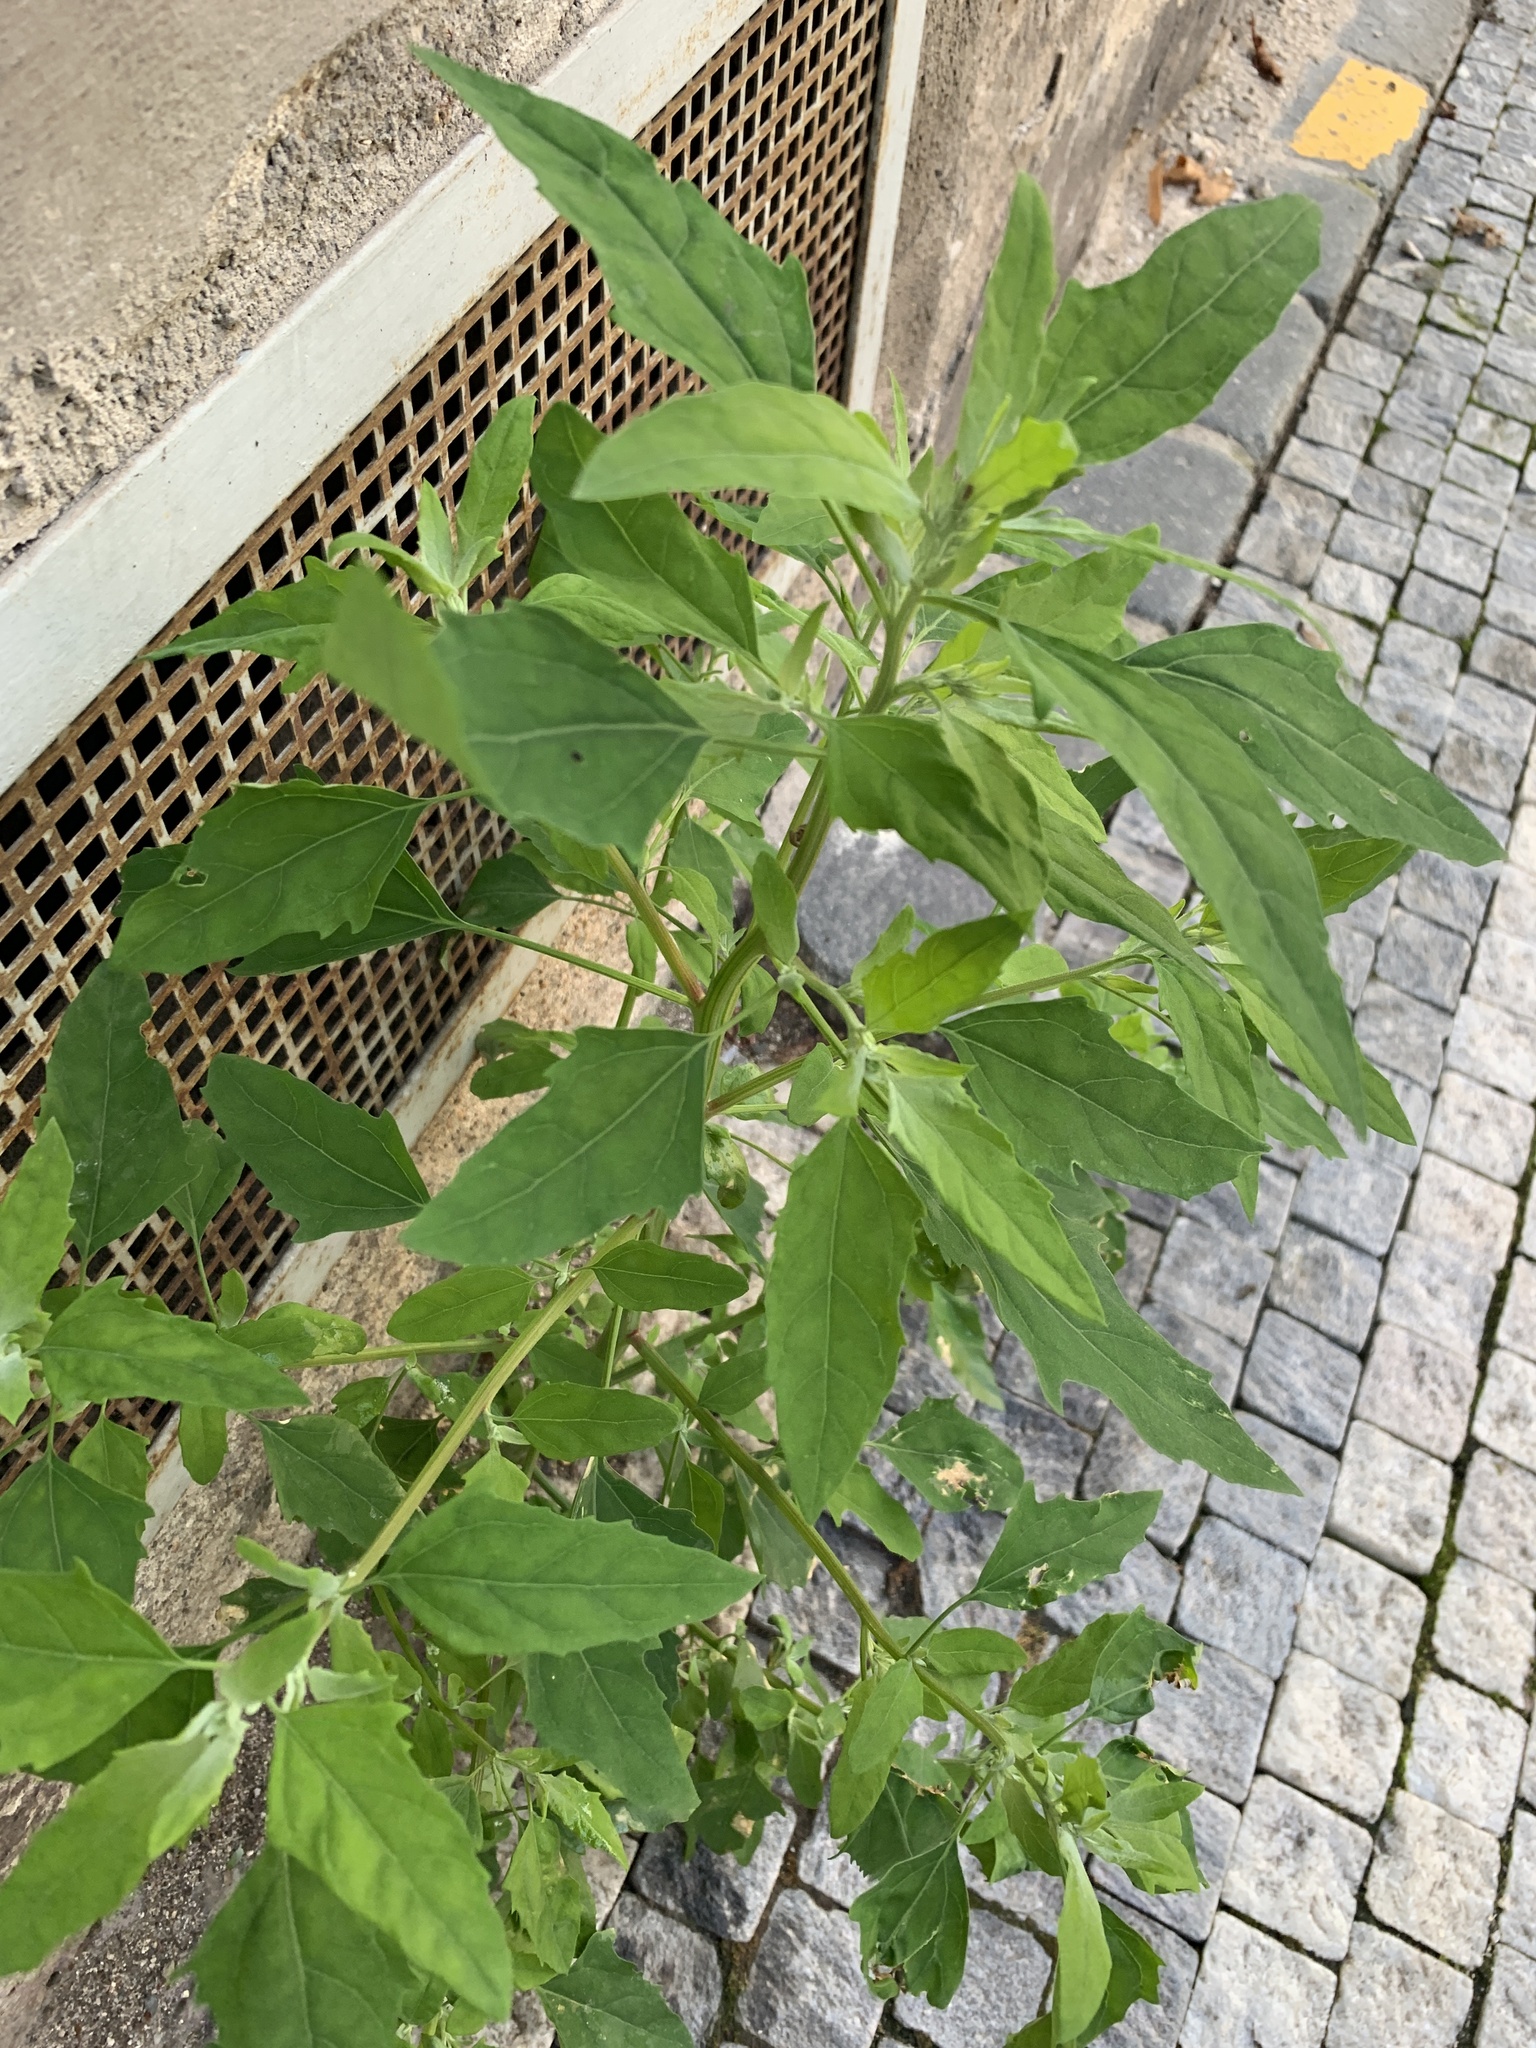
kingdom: Plantae
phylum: Tracheophyta
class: Magnoliopsida
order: Caryophyllales
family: Amaranthaceae
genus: Chenopodium
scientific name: Chenopodium album
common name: Fat-hen
